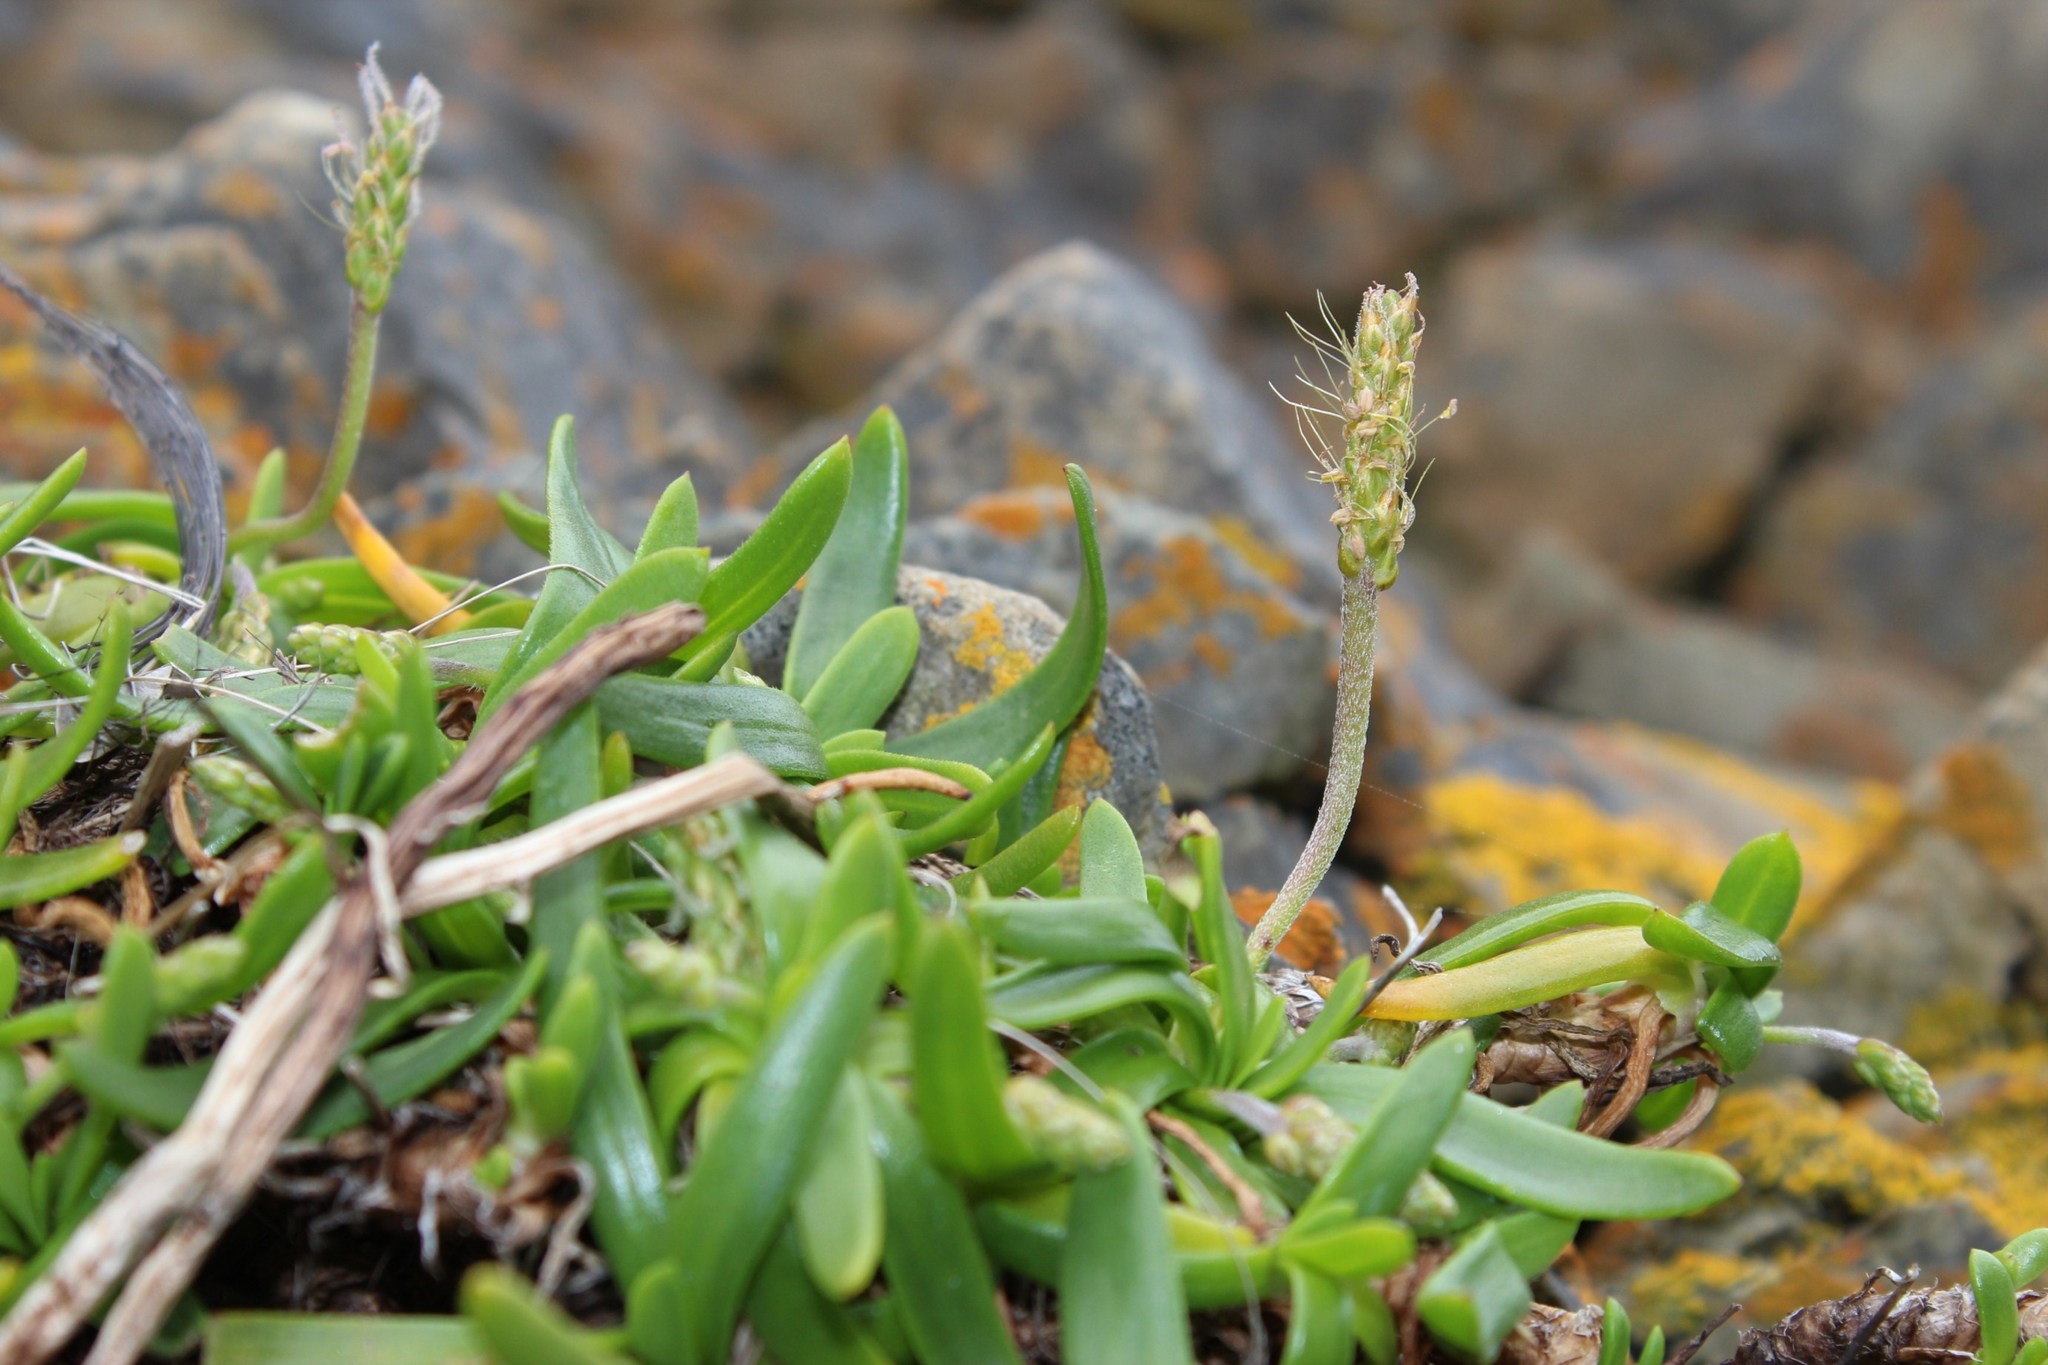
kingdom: Plantae
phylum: Tracheophyta
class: Magnoliopsida
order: Lamiales
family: Plantaginaceae
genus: Plantago
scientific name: Plantago carnosa
